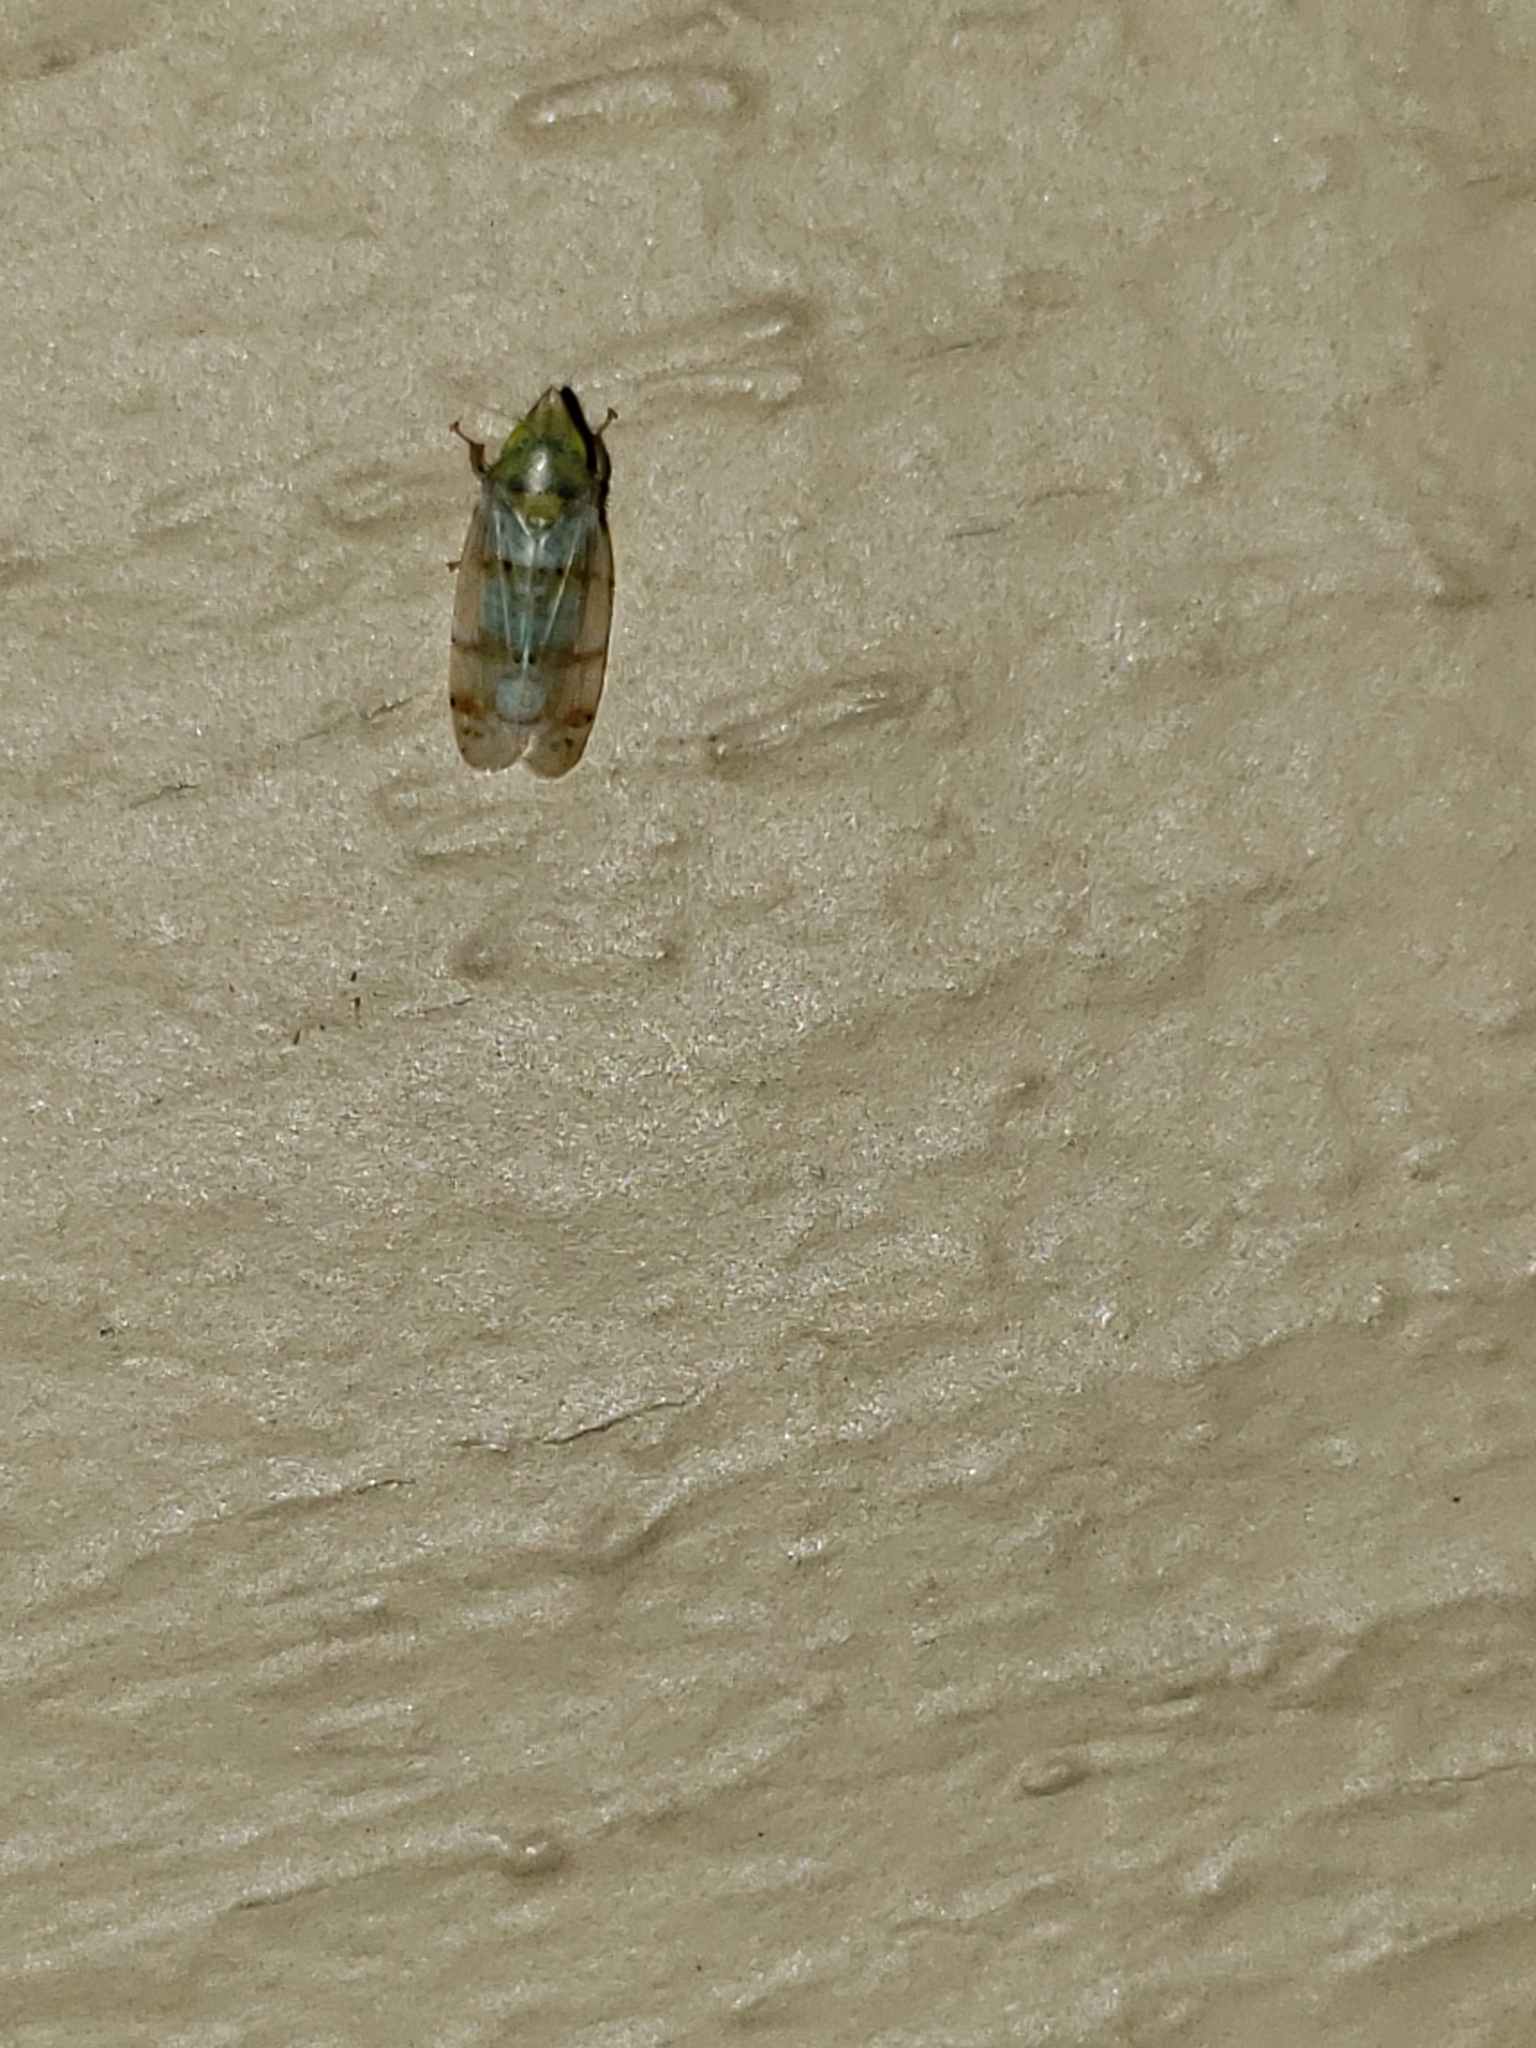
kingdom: Animalia
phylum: Arthropoda
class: Insecta
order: Hemiptera
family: Cicadellidae
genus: Japananus
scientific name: Japananus hyalinus
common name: The japanese maple leafhopper
